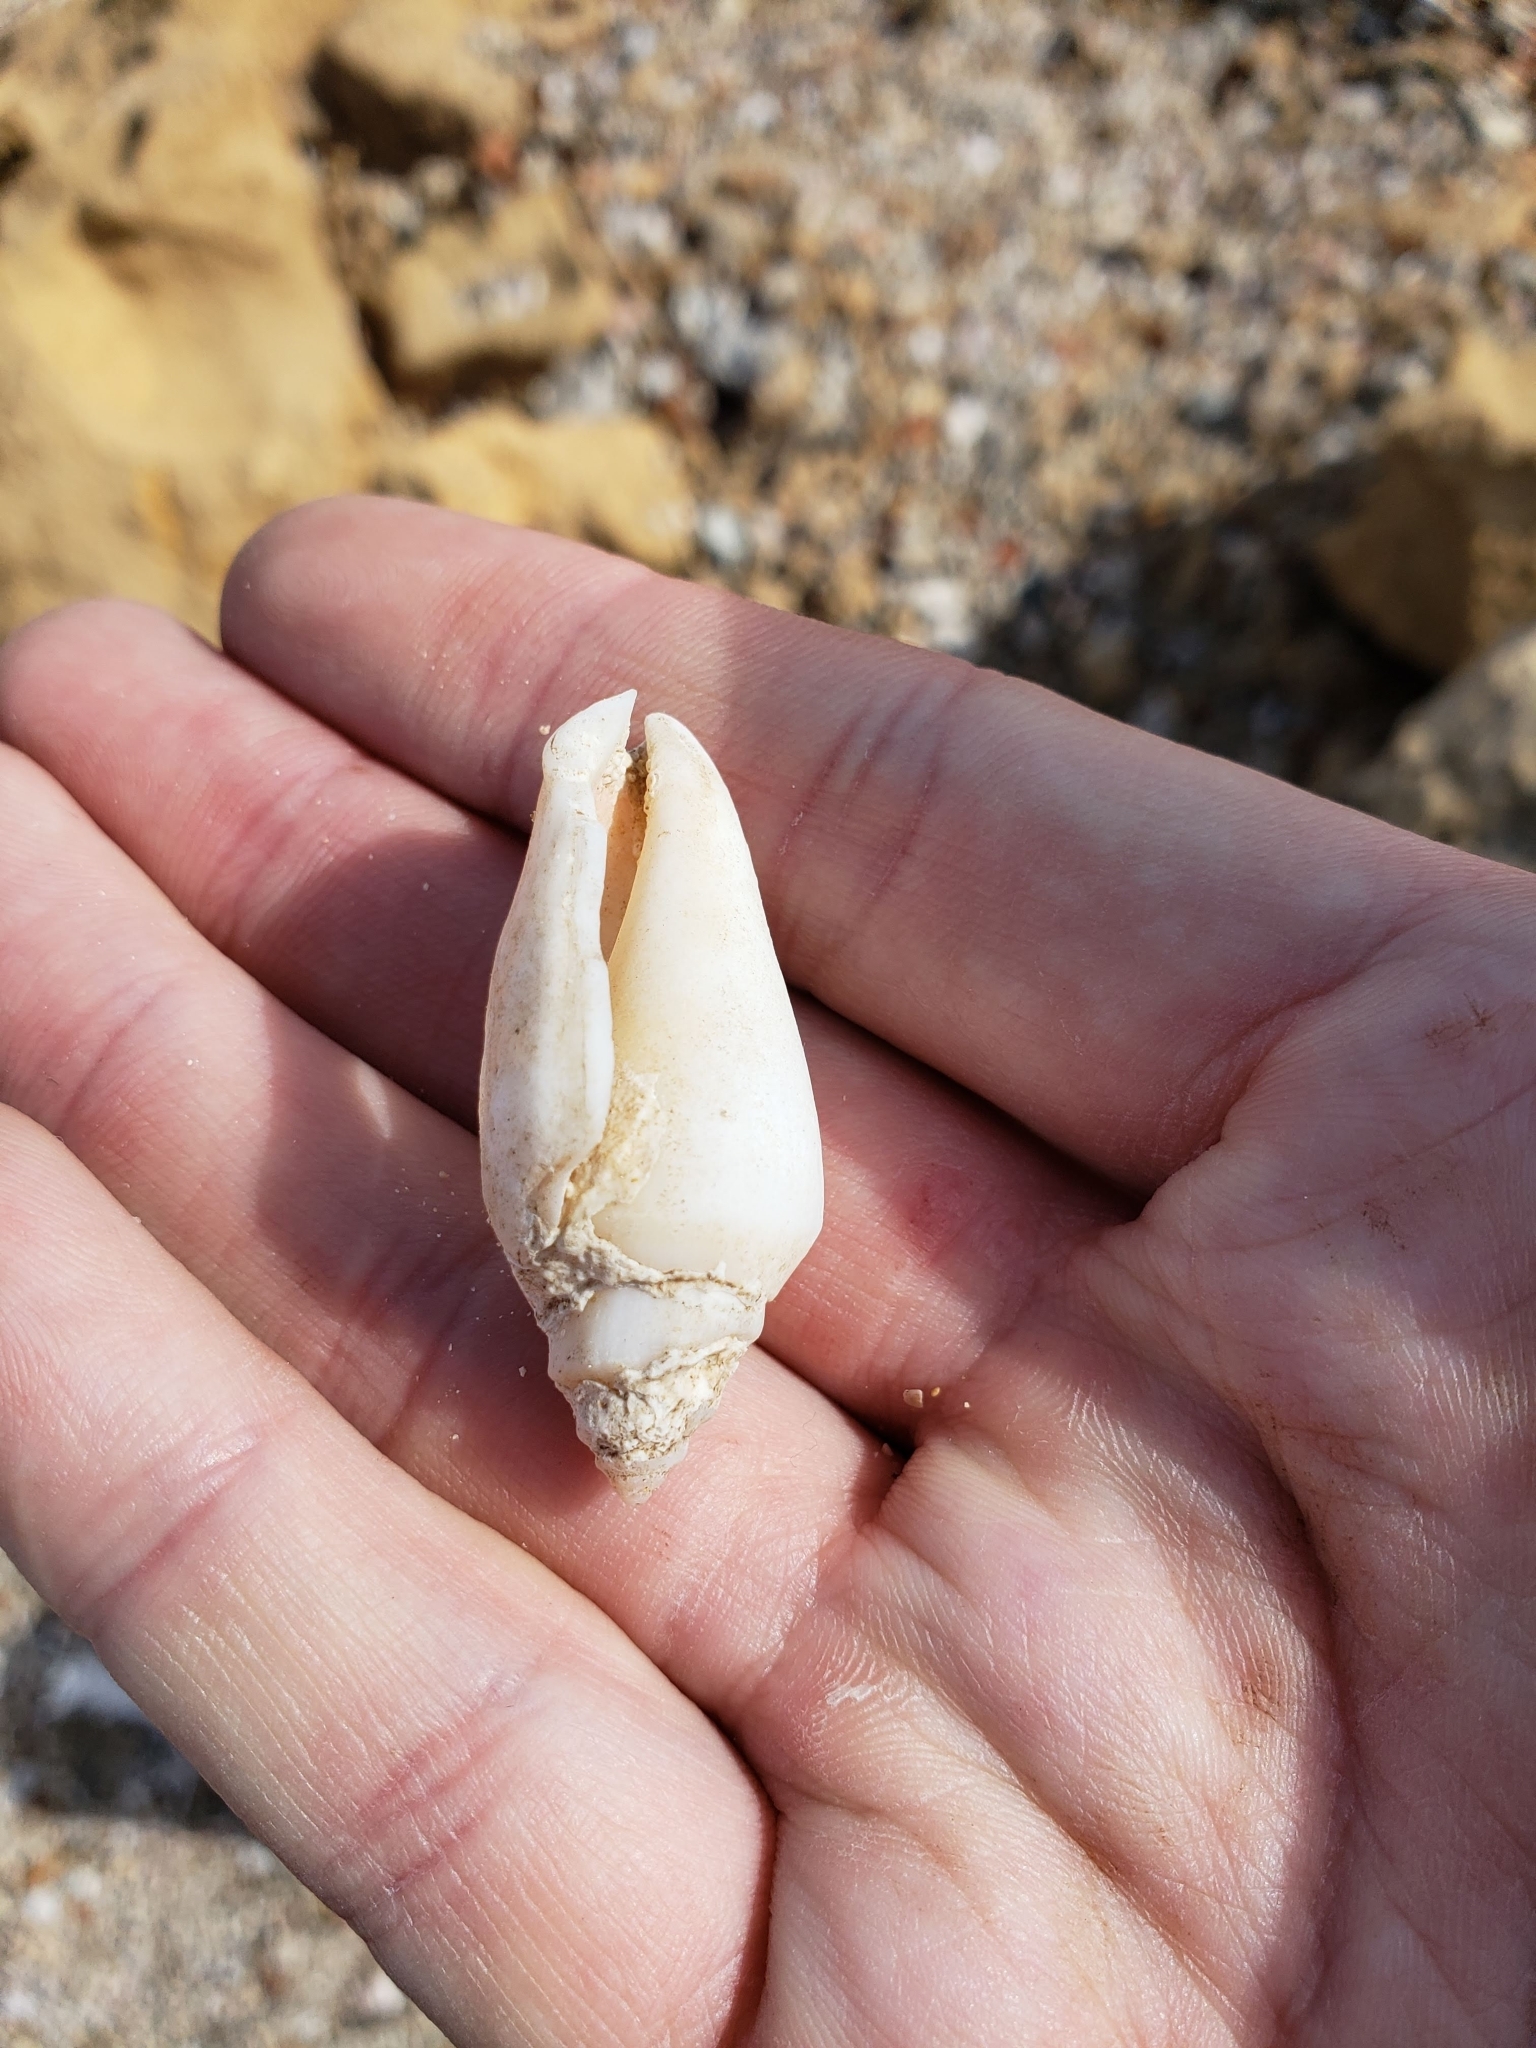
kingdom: Animalia
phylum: Mollusca
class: Gastropoda
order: Littorinimorpha
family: Strombidae
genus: Conomurex
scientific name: Conomurex persicus
